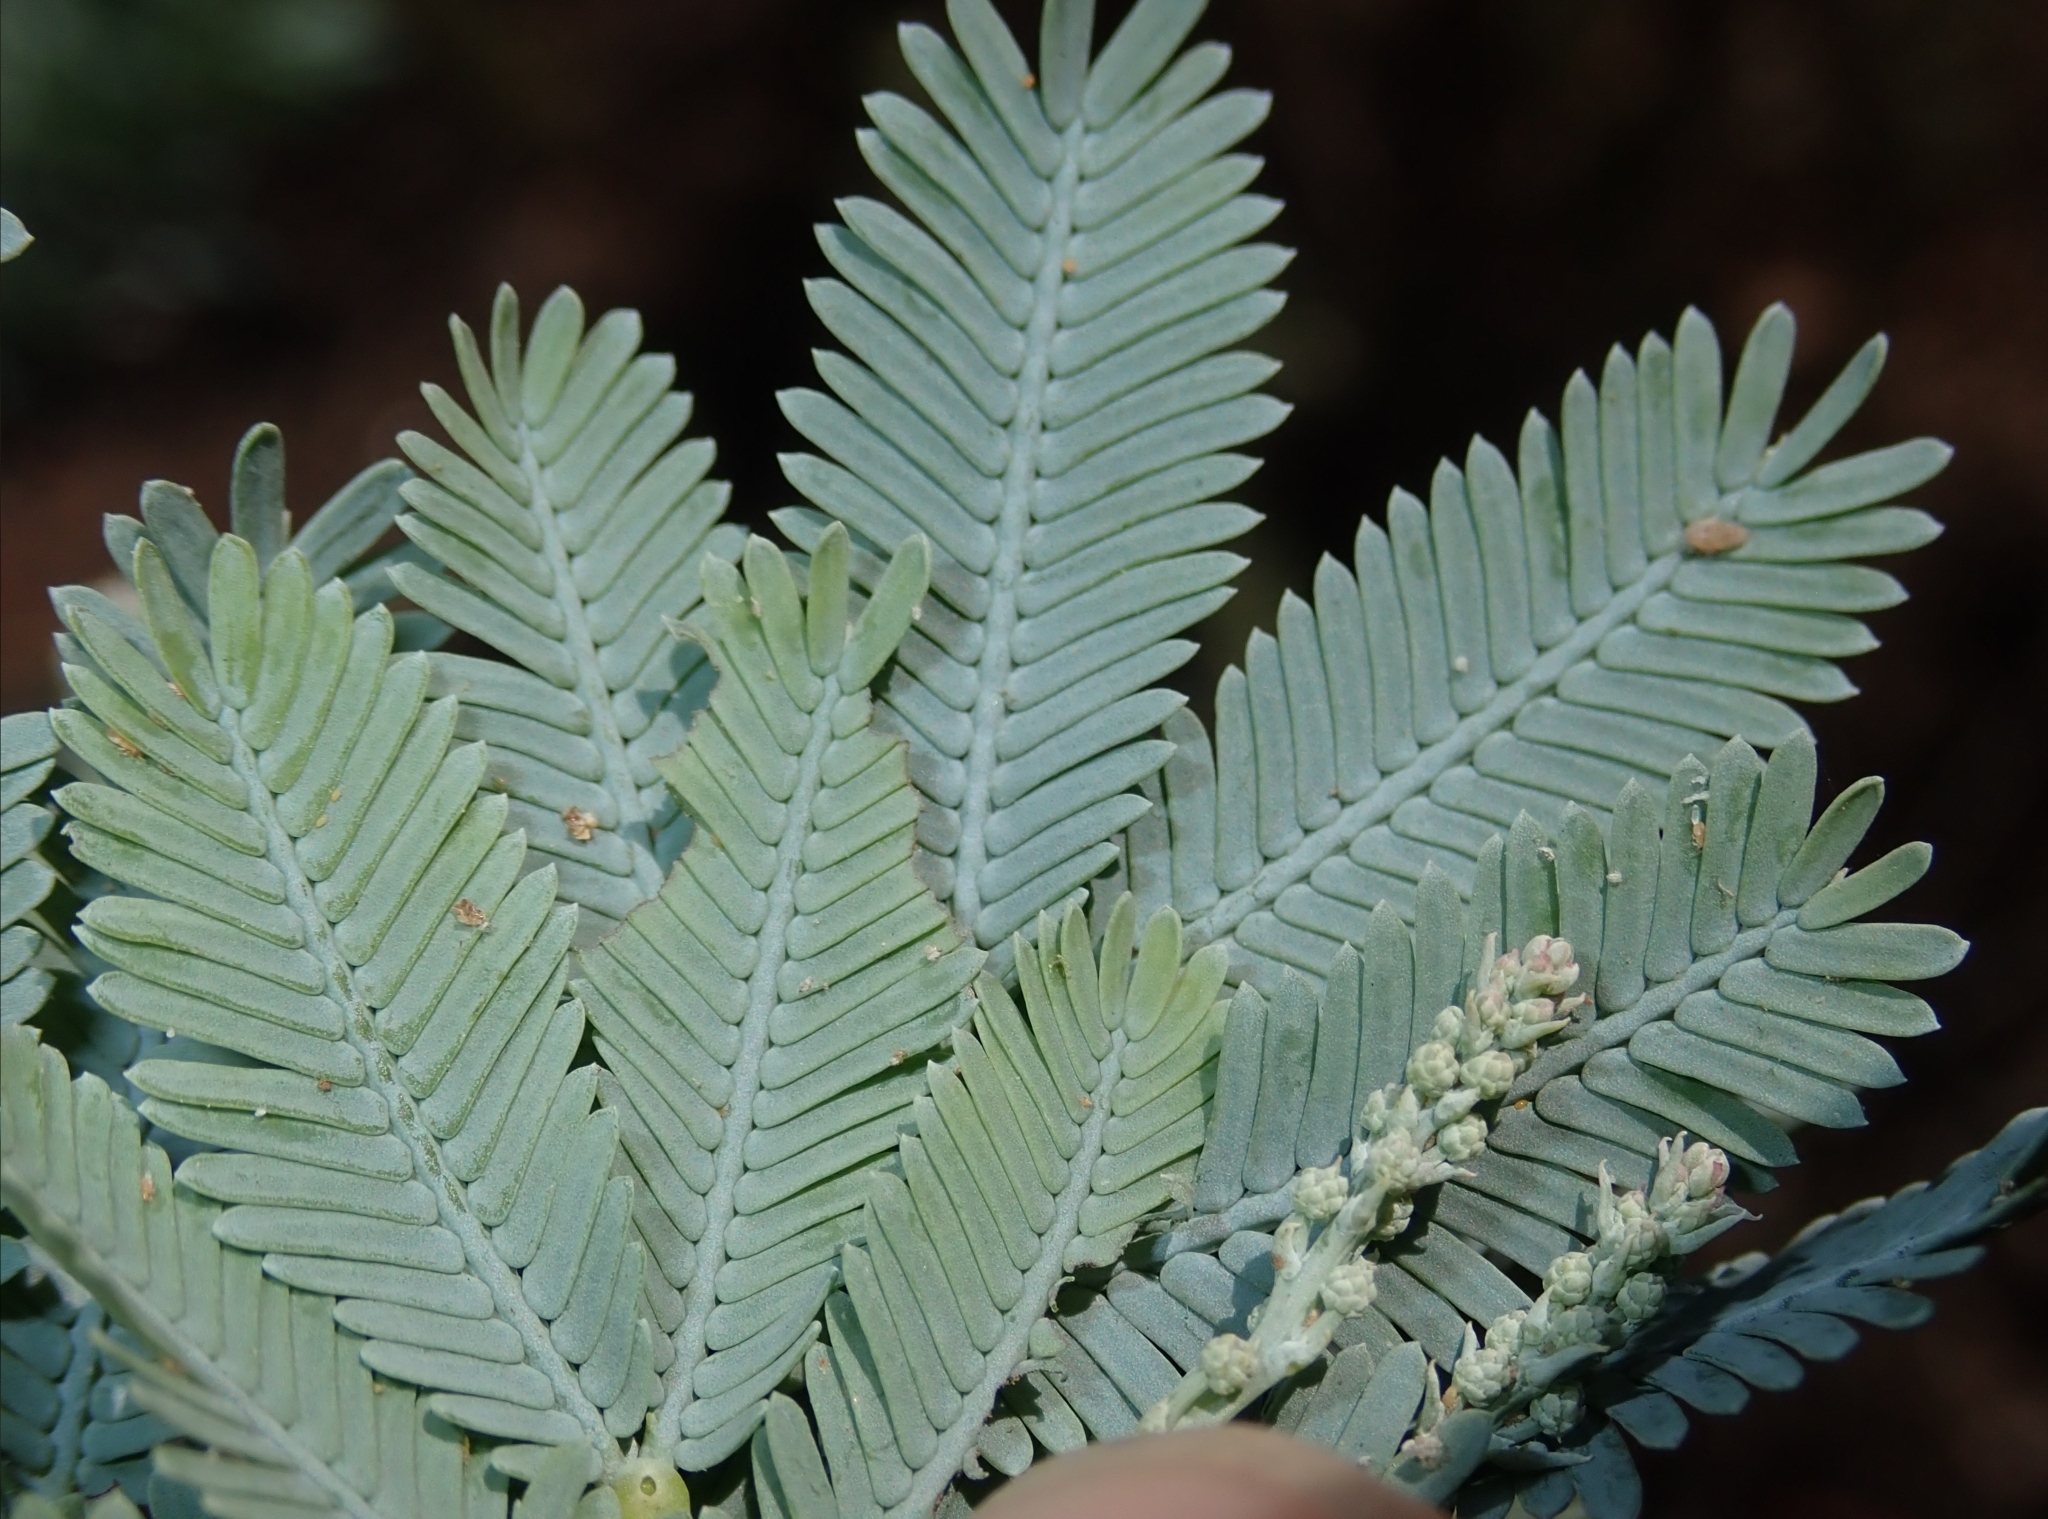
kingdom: Plantae
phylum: Tracheophyta
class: Magnoliopsida
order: Fabales
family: Fabaceae
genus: Acacia
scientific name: Acacia baileyana
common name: Cootamundra wattle
